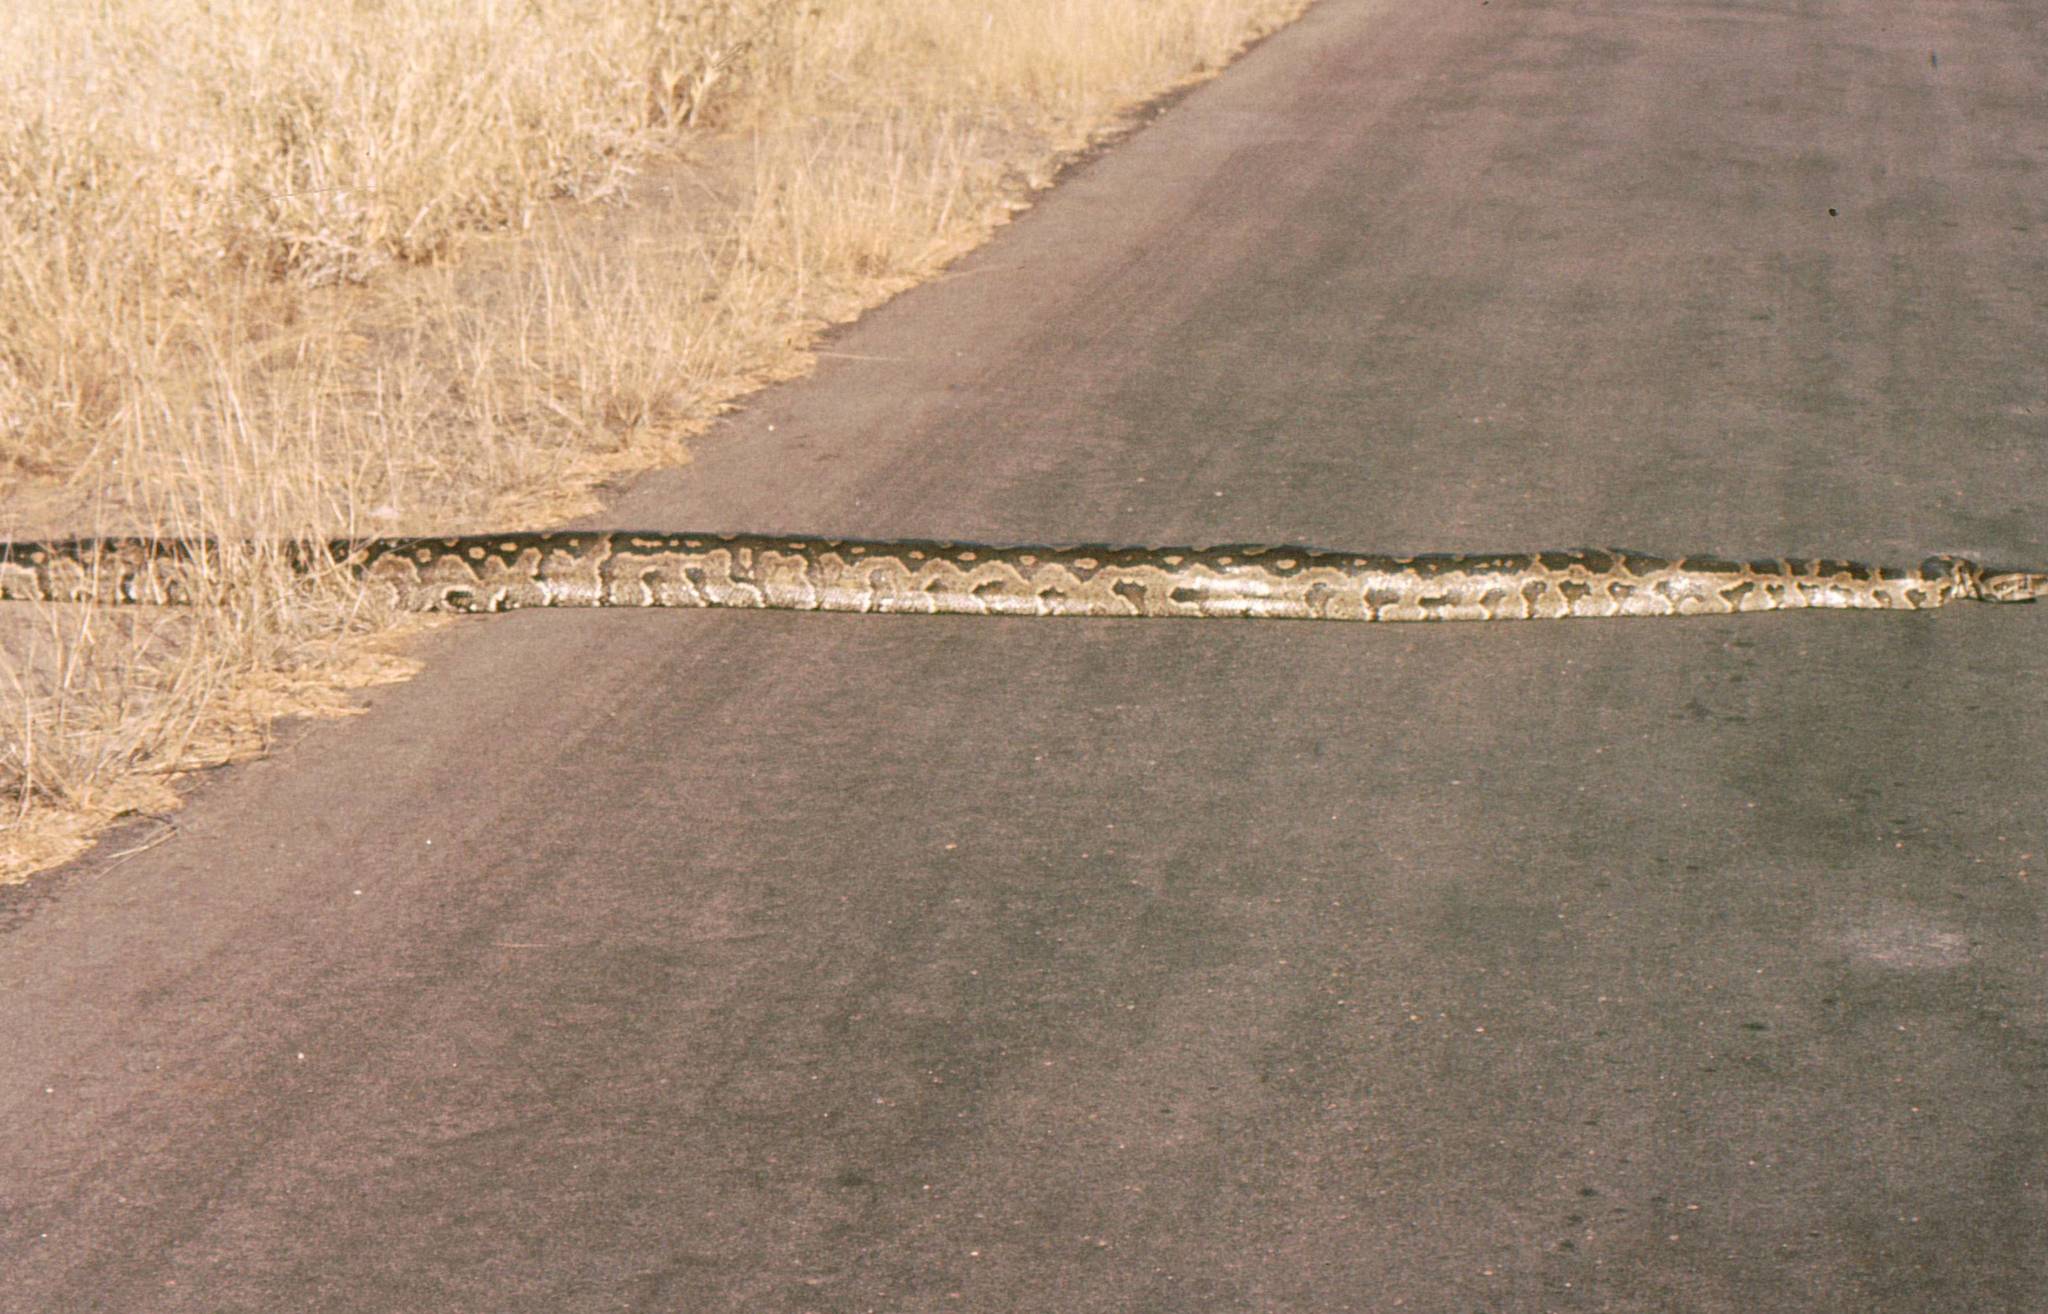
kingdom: Animalia
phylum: Chordata
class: Squamata
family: Pythonidae
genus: Python
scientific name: Python natalensis
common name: Southern african rock python
